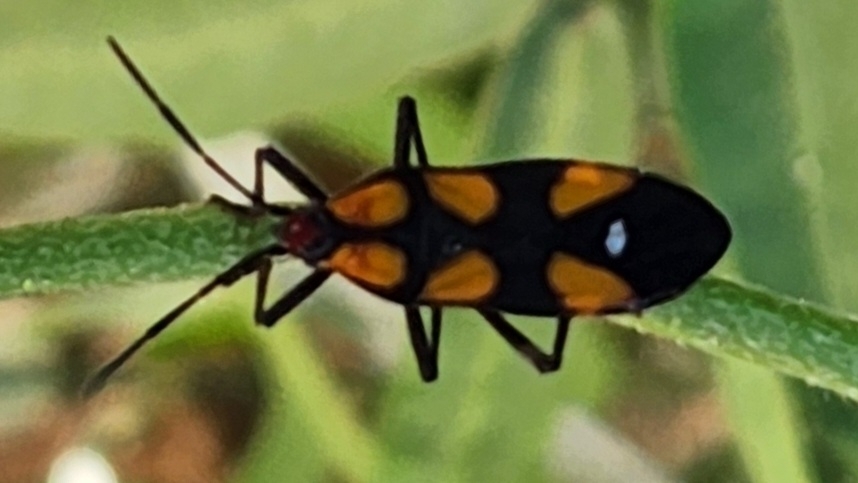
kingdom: Animalia
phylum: Arthropoda
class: Insecta
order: Hemiptera
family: Lygaeidae
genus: Oncopeltus
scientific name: Oncopeltus spectabilis
